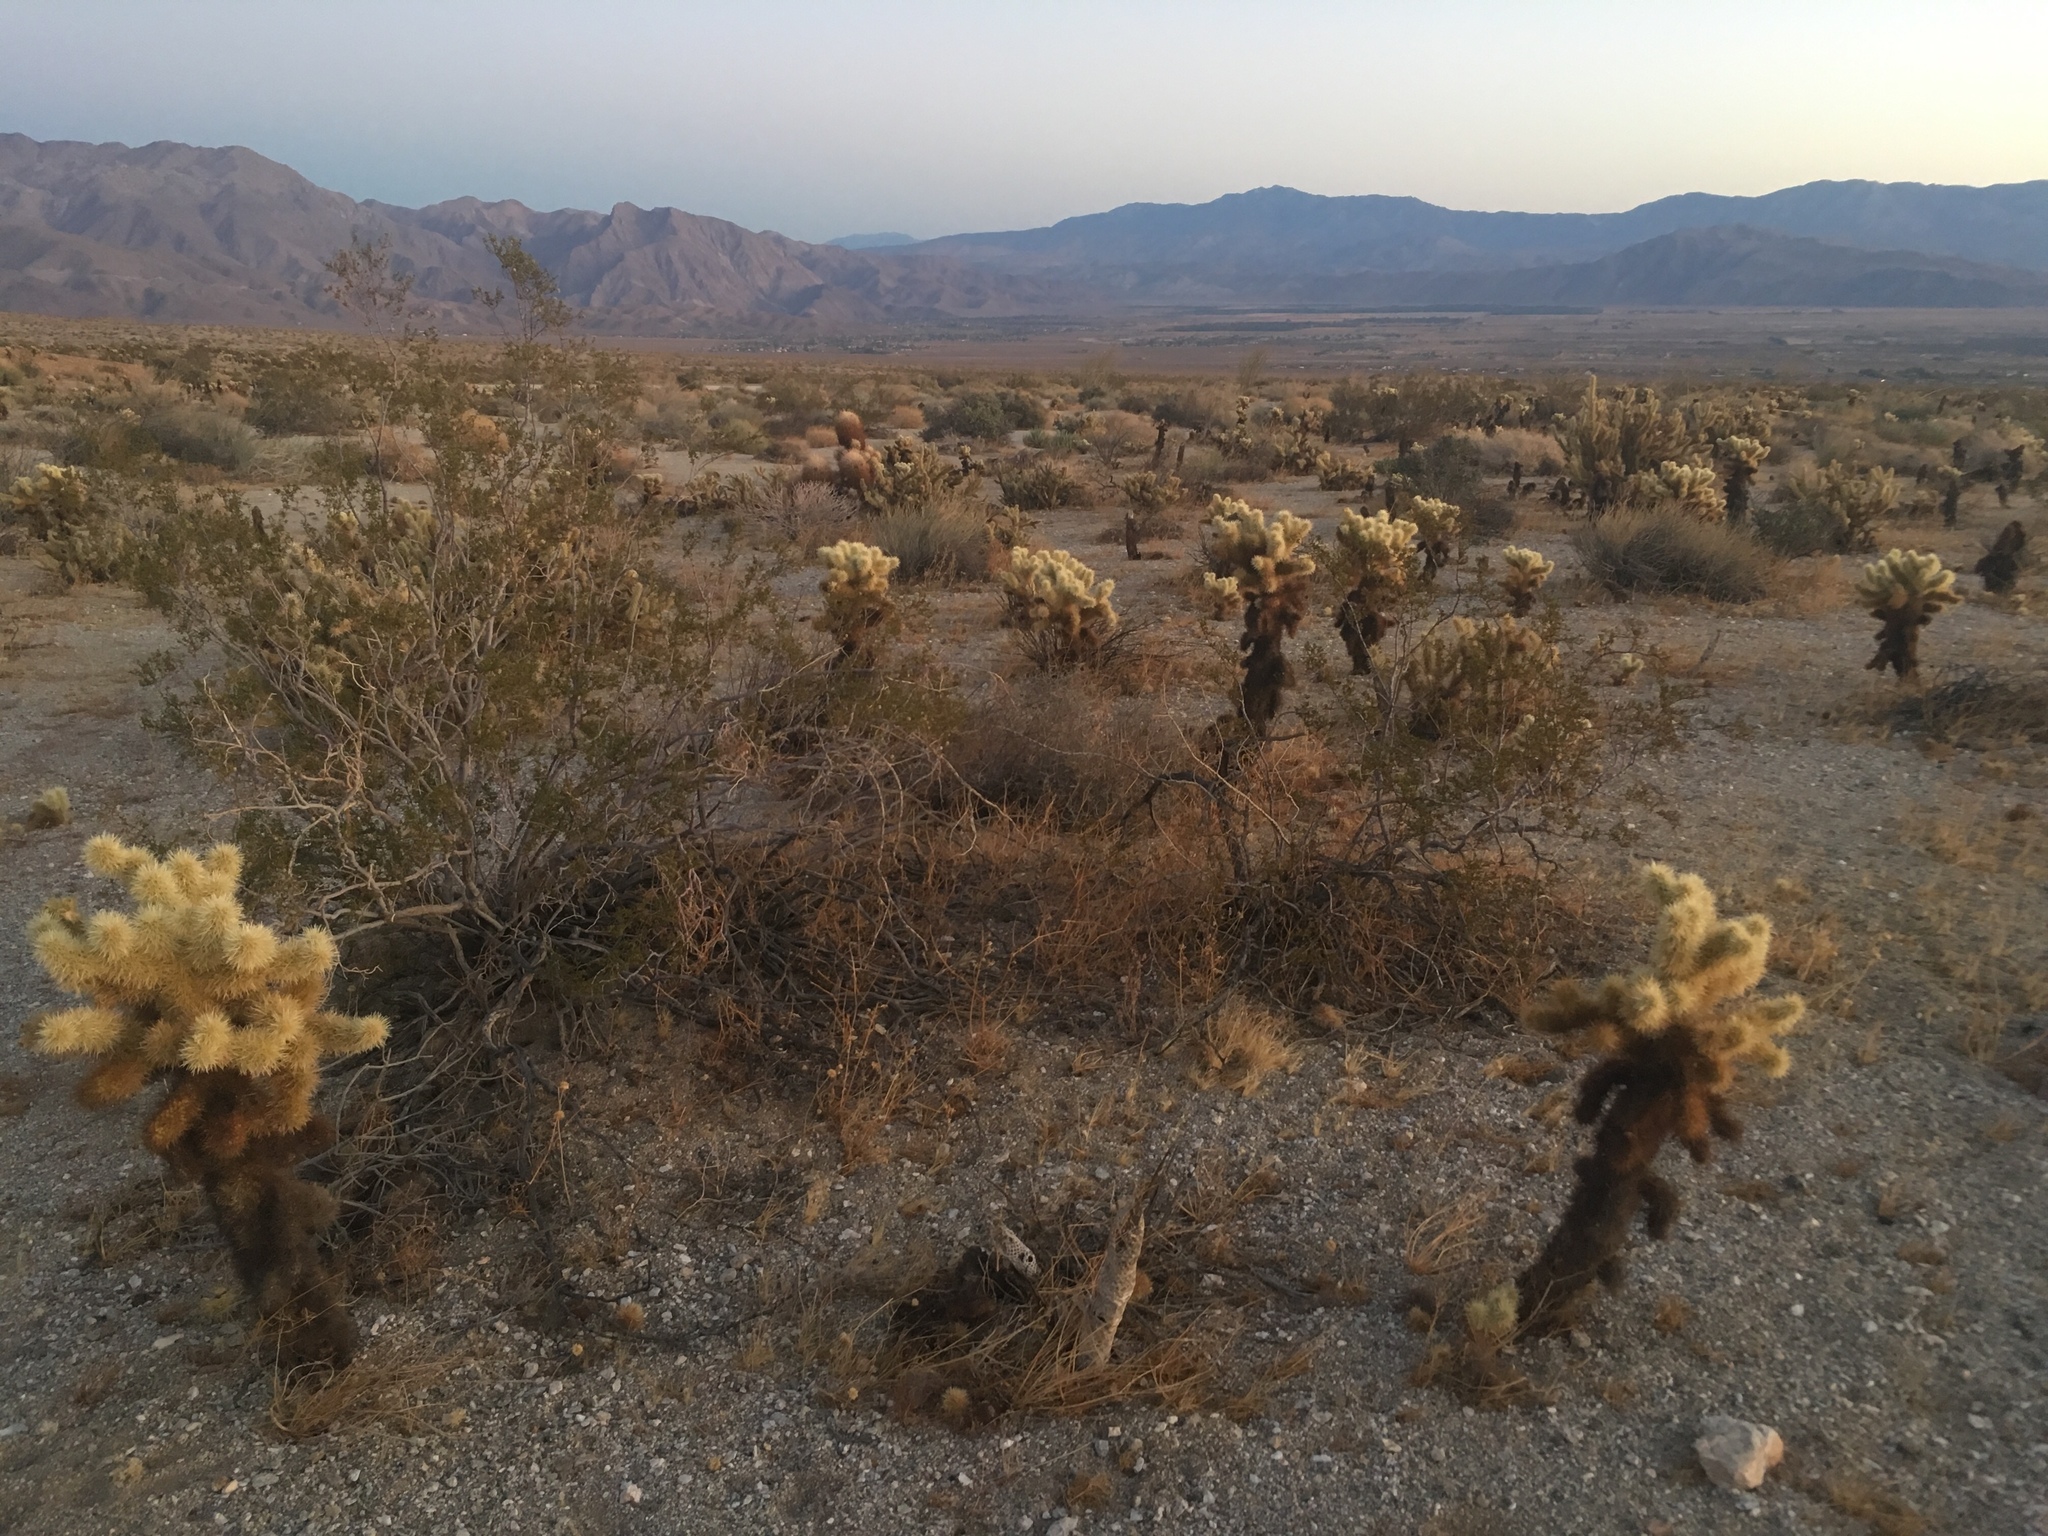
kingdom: Plantae
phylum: Tracheophyta
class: Magnoliopsida
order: Caryophyllales
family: Cactaceae
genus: Cylindropuntia
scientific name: Cylindropuntia fosbergii
